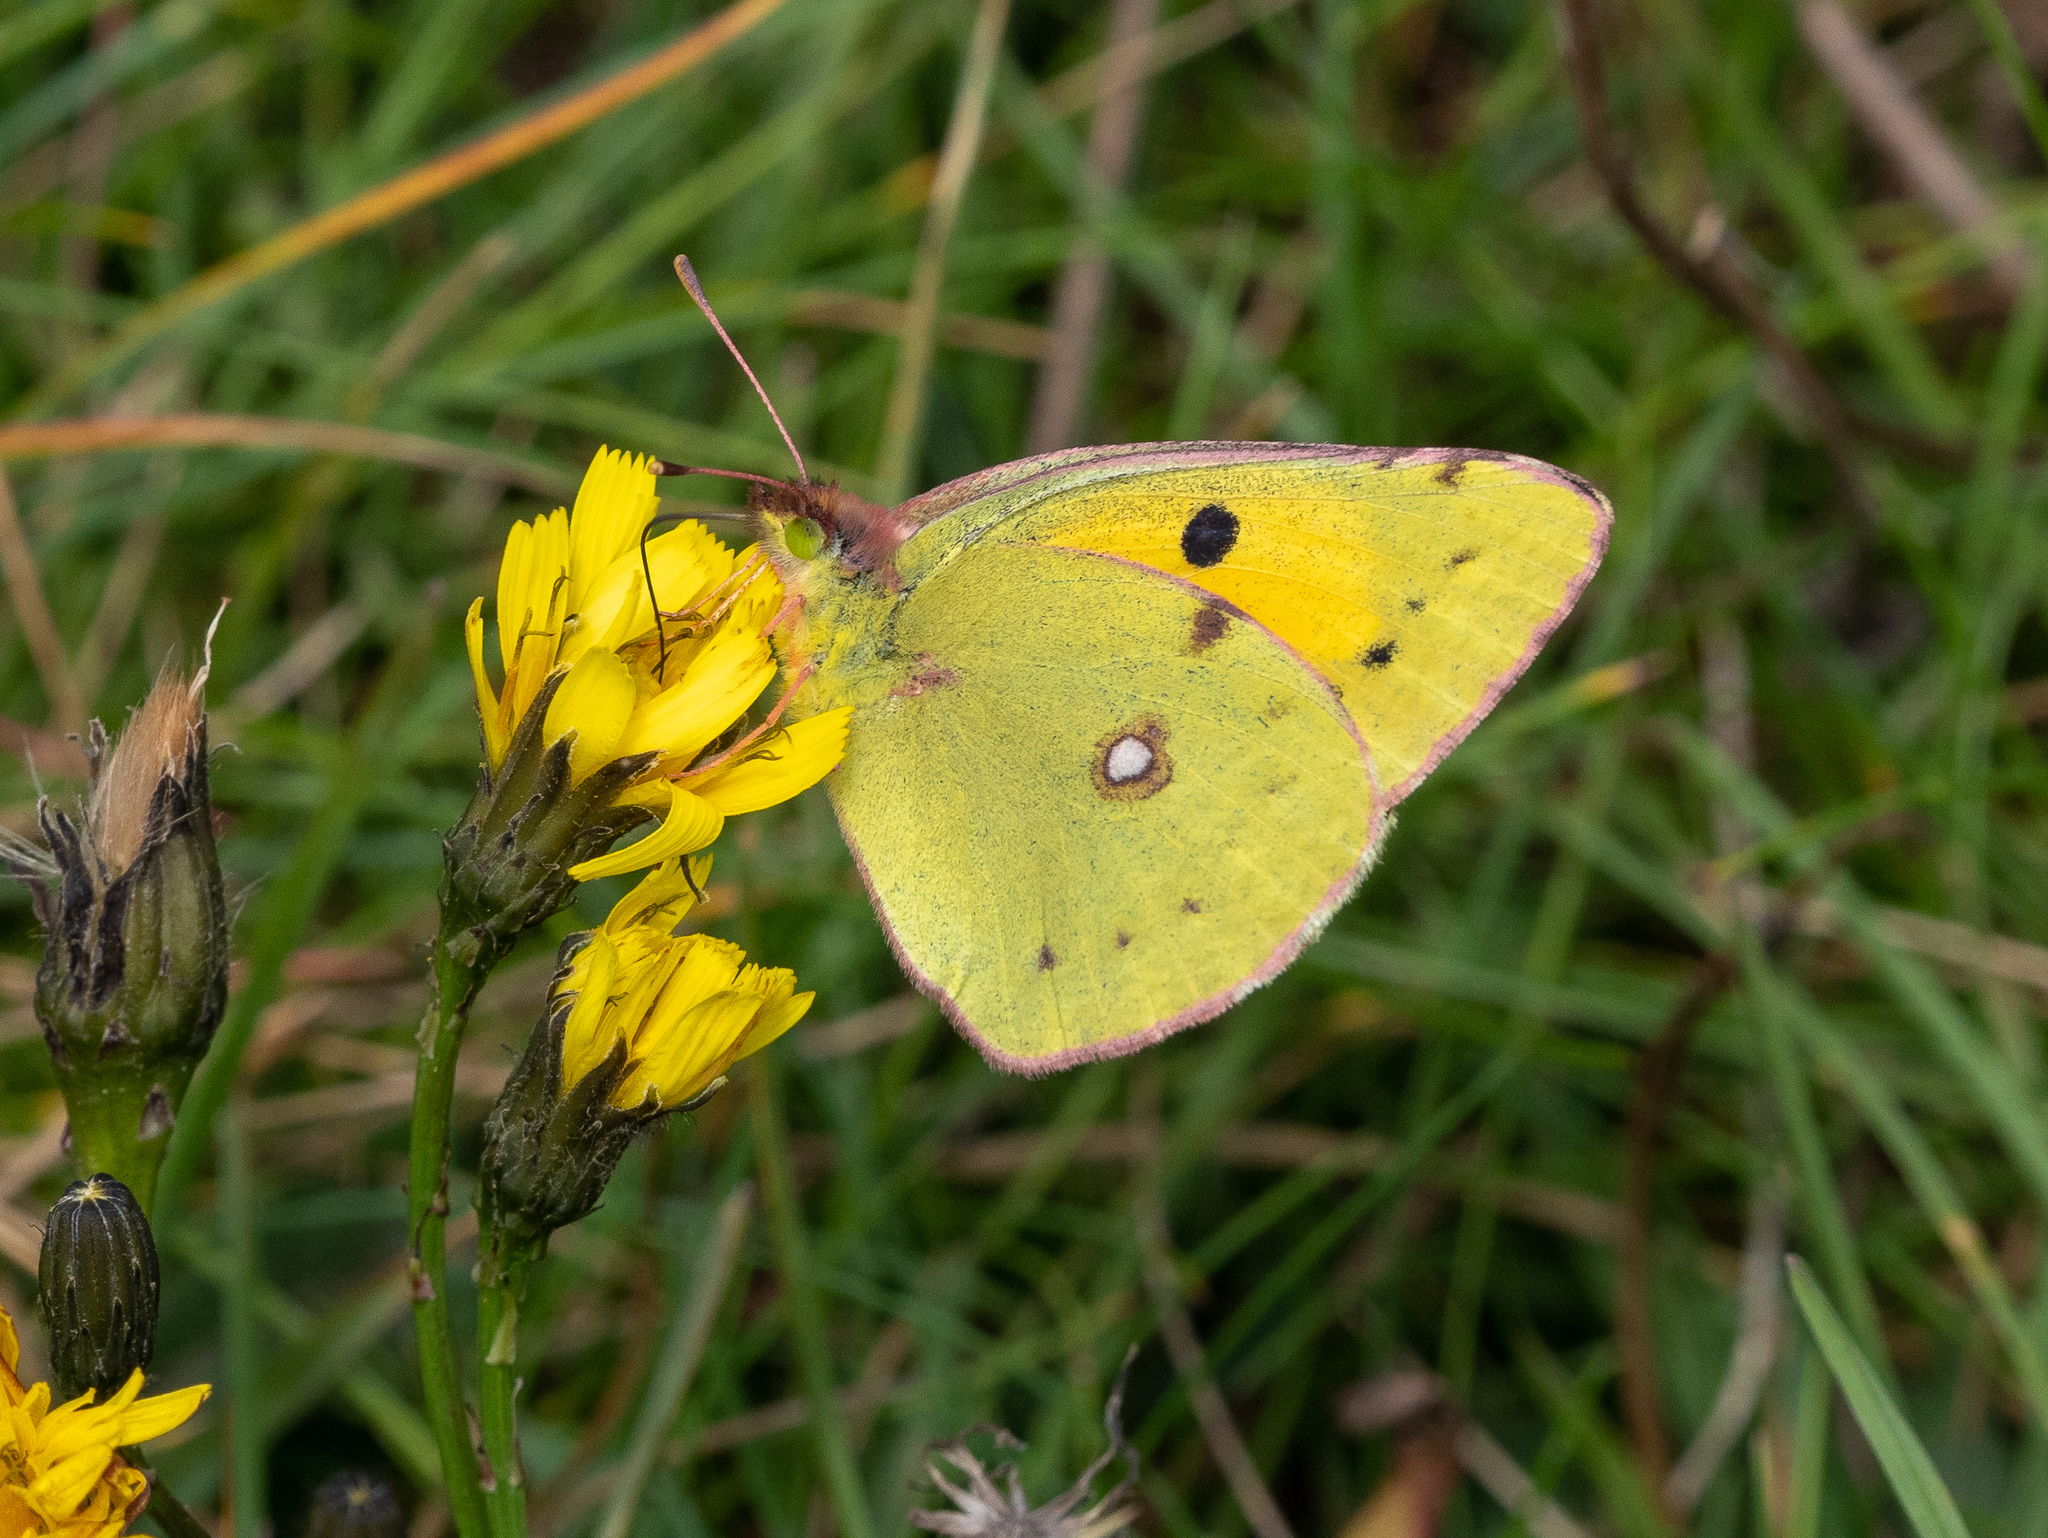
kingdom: Animalia
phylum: Arthropoda
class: Insecta
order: Lepidoptera
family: Pieridae
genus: Colias
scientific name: Colias croceus
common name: Clouded yellow
